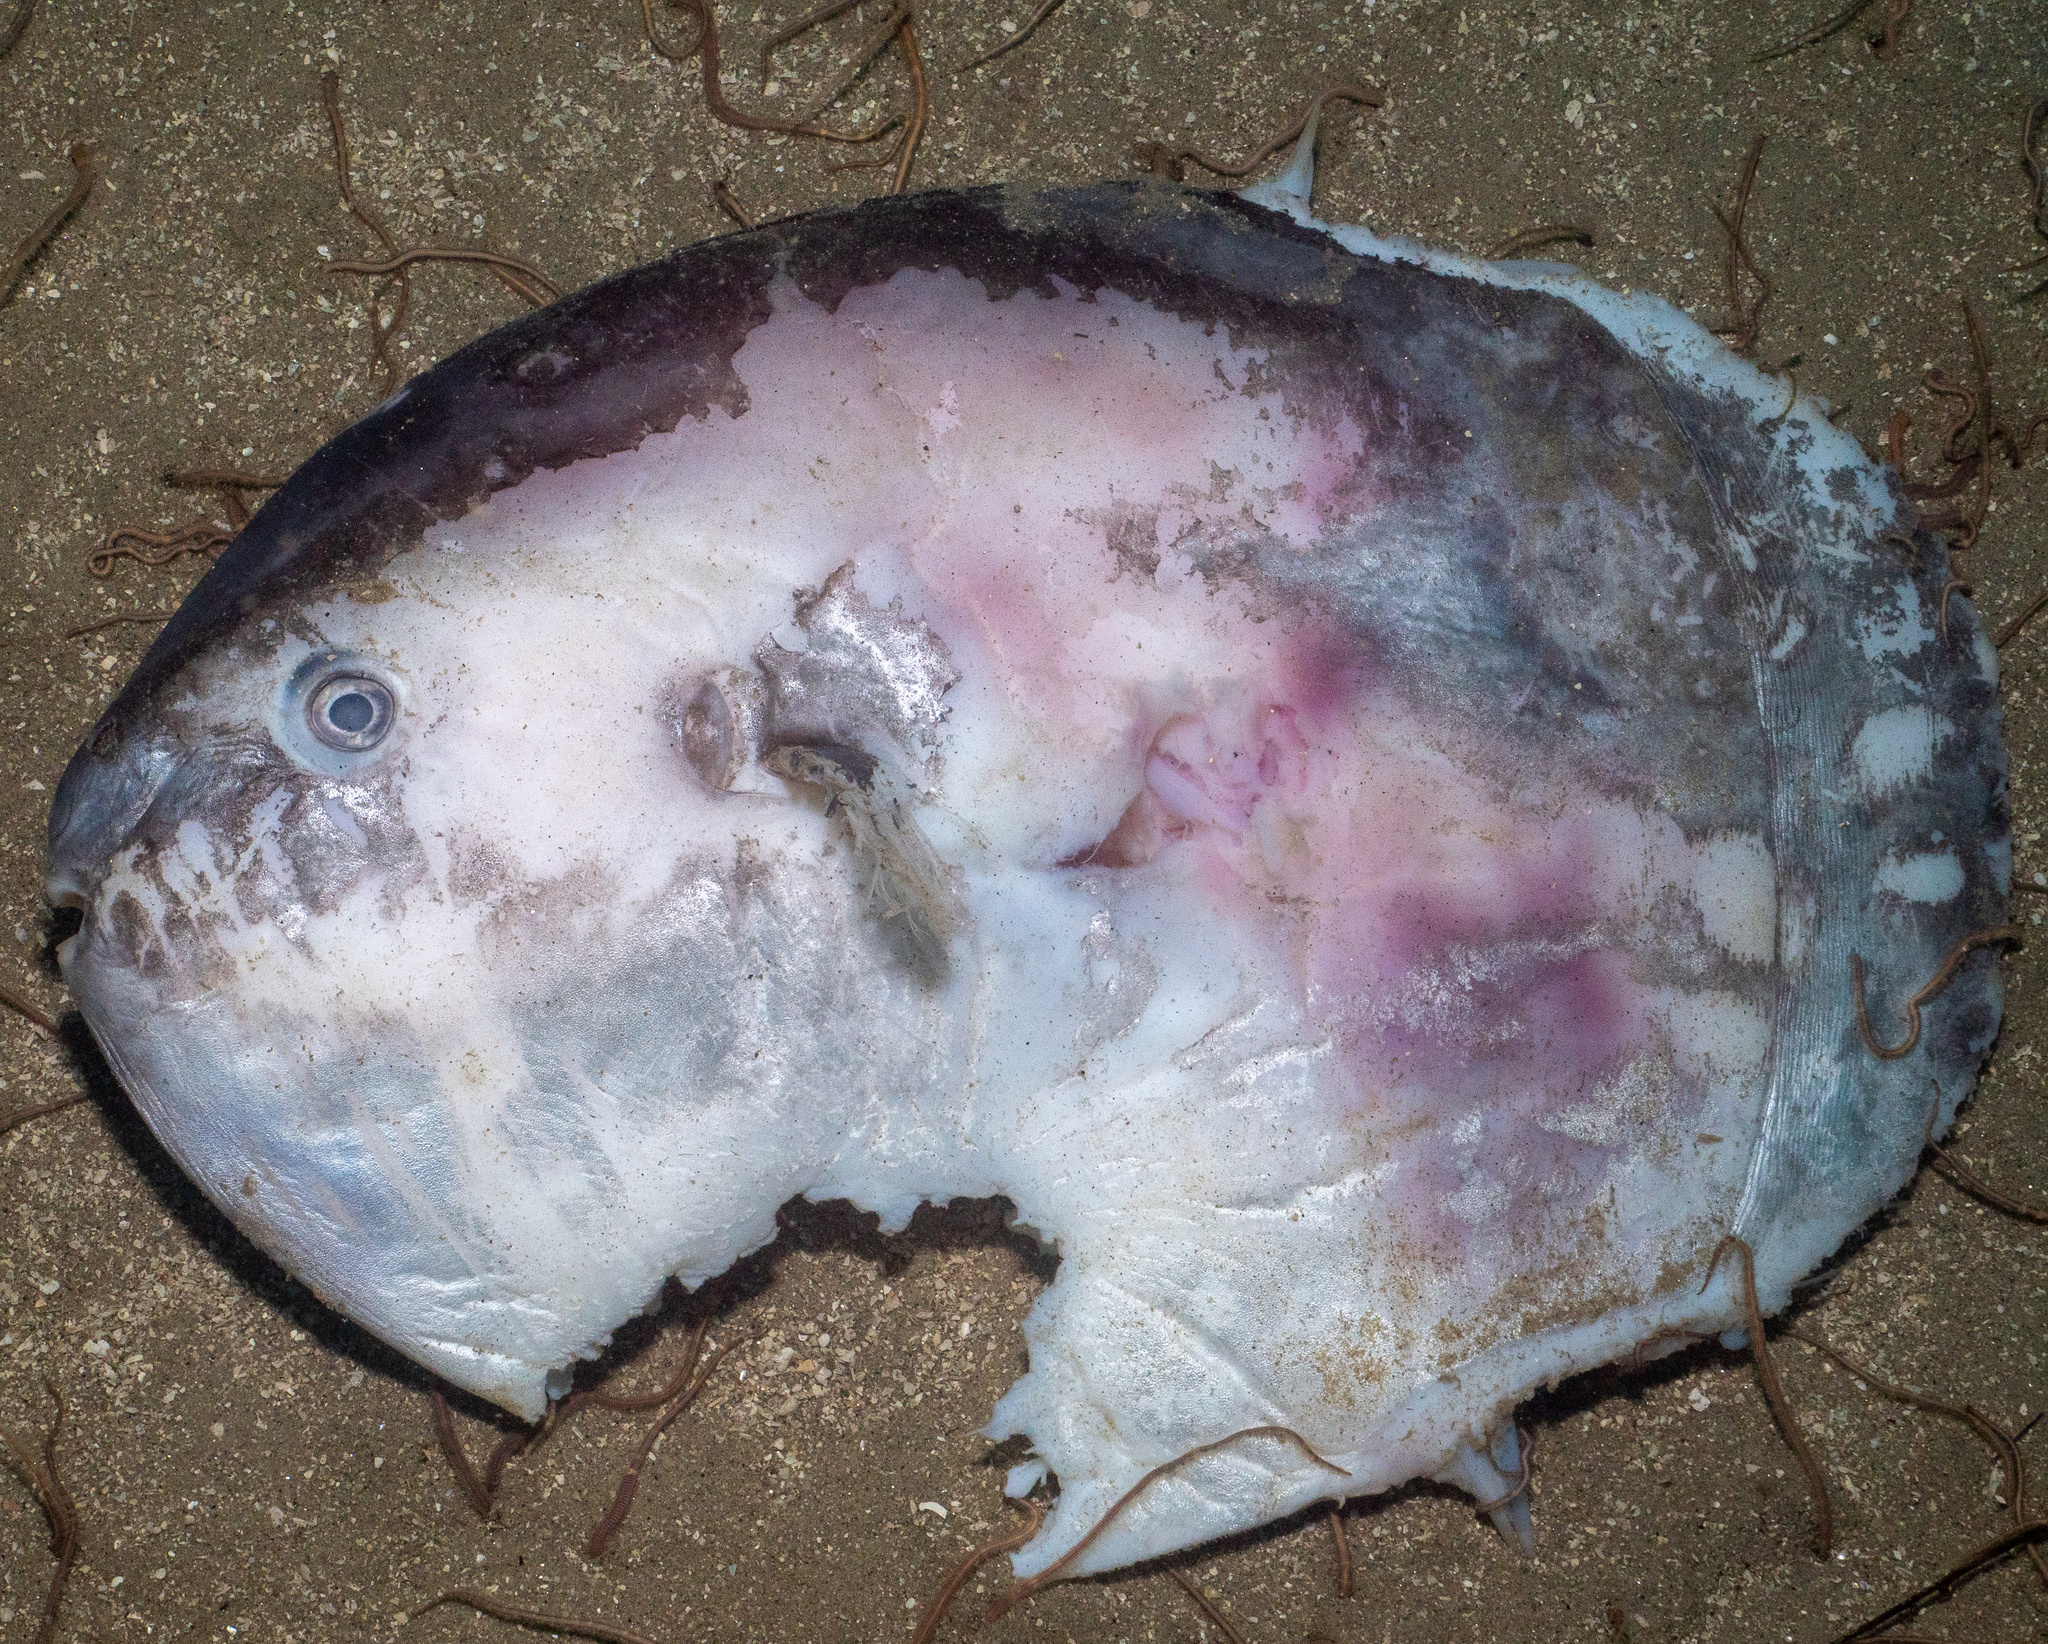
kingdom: Animalia
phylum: Chordata
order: Tetraodontiformes
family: Molidae
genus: Mola
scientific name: Mola mola
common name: Ocean sunfish
